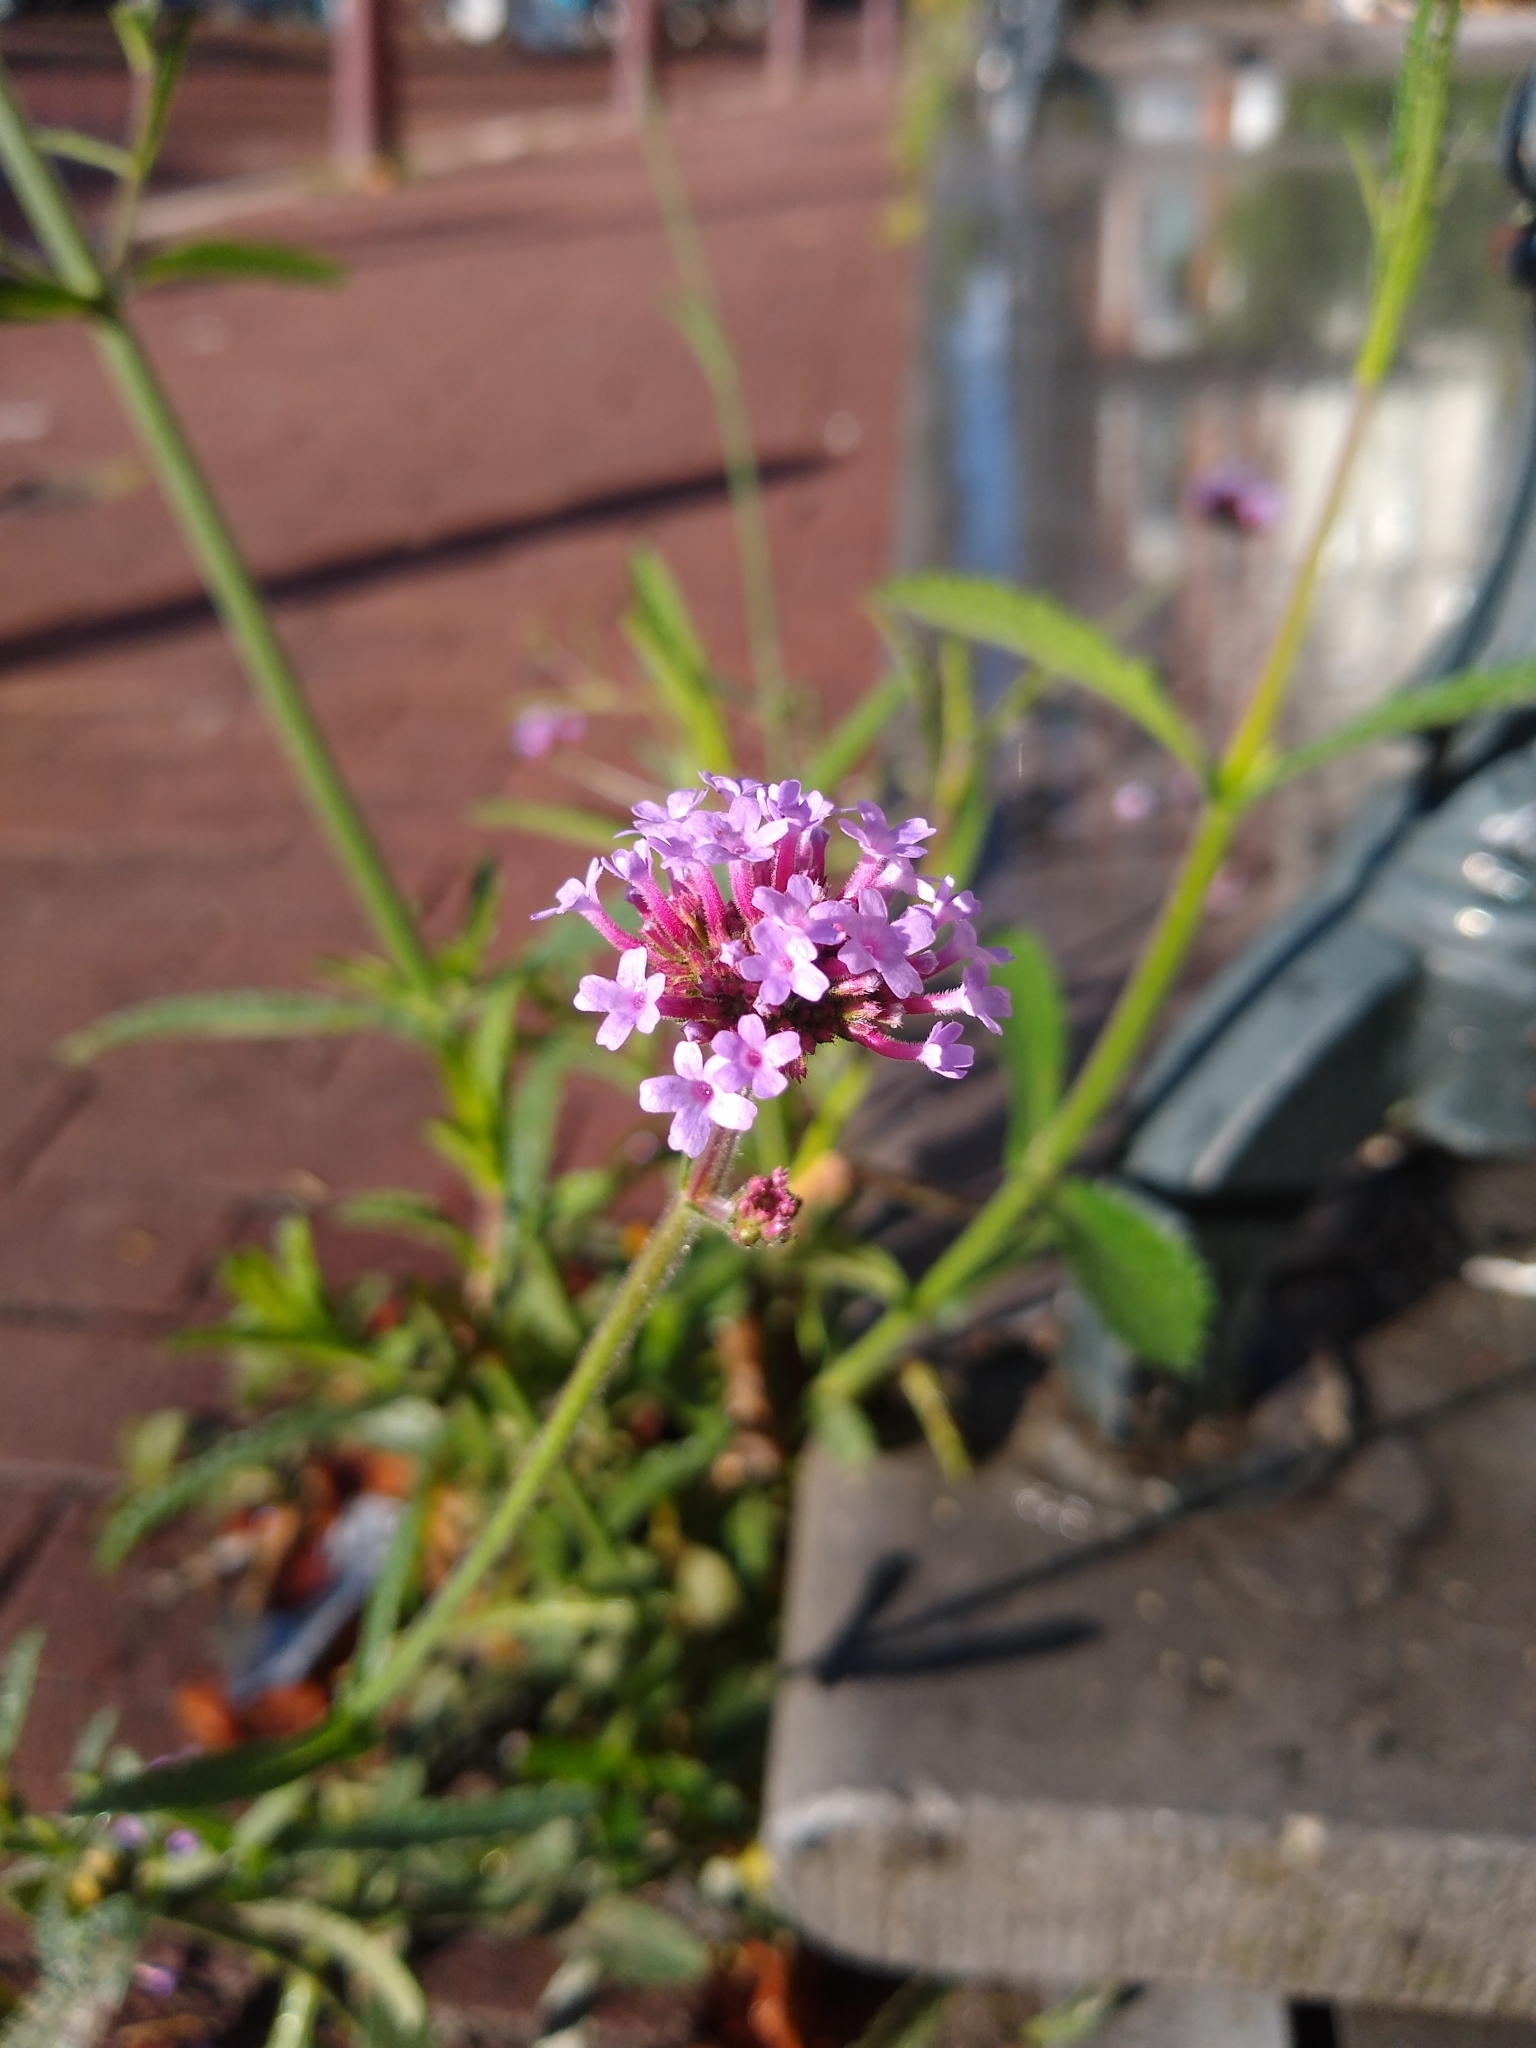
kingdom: Plantae
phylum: Tracheophyta
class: Magnoliopsida
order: Lamiales
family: Verbenaceae
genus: Verbena
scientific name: Verbena bonariensis
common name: Purpletop vervain
